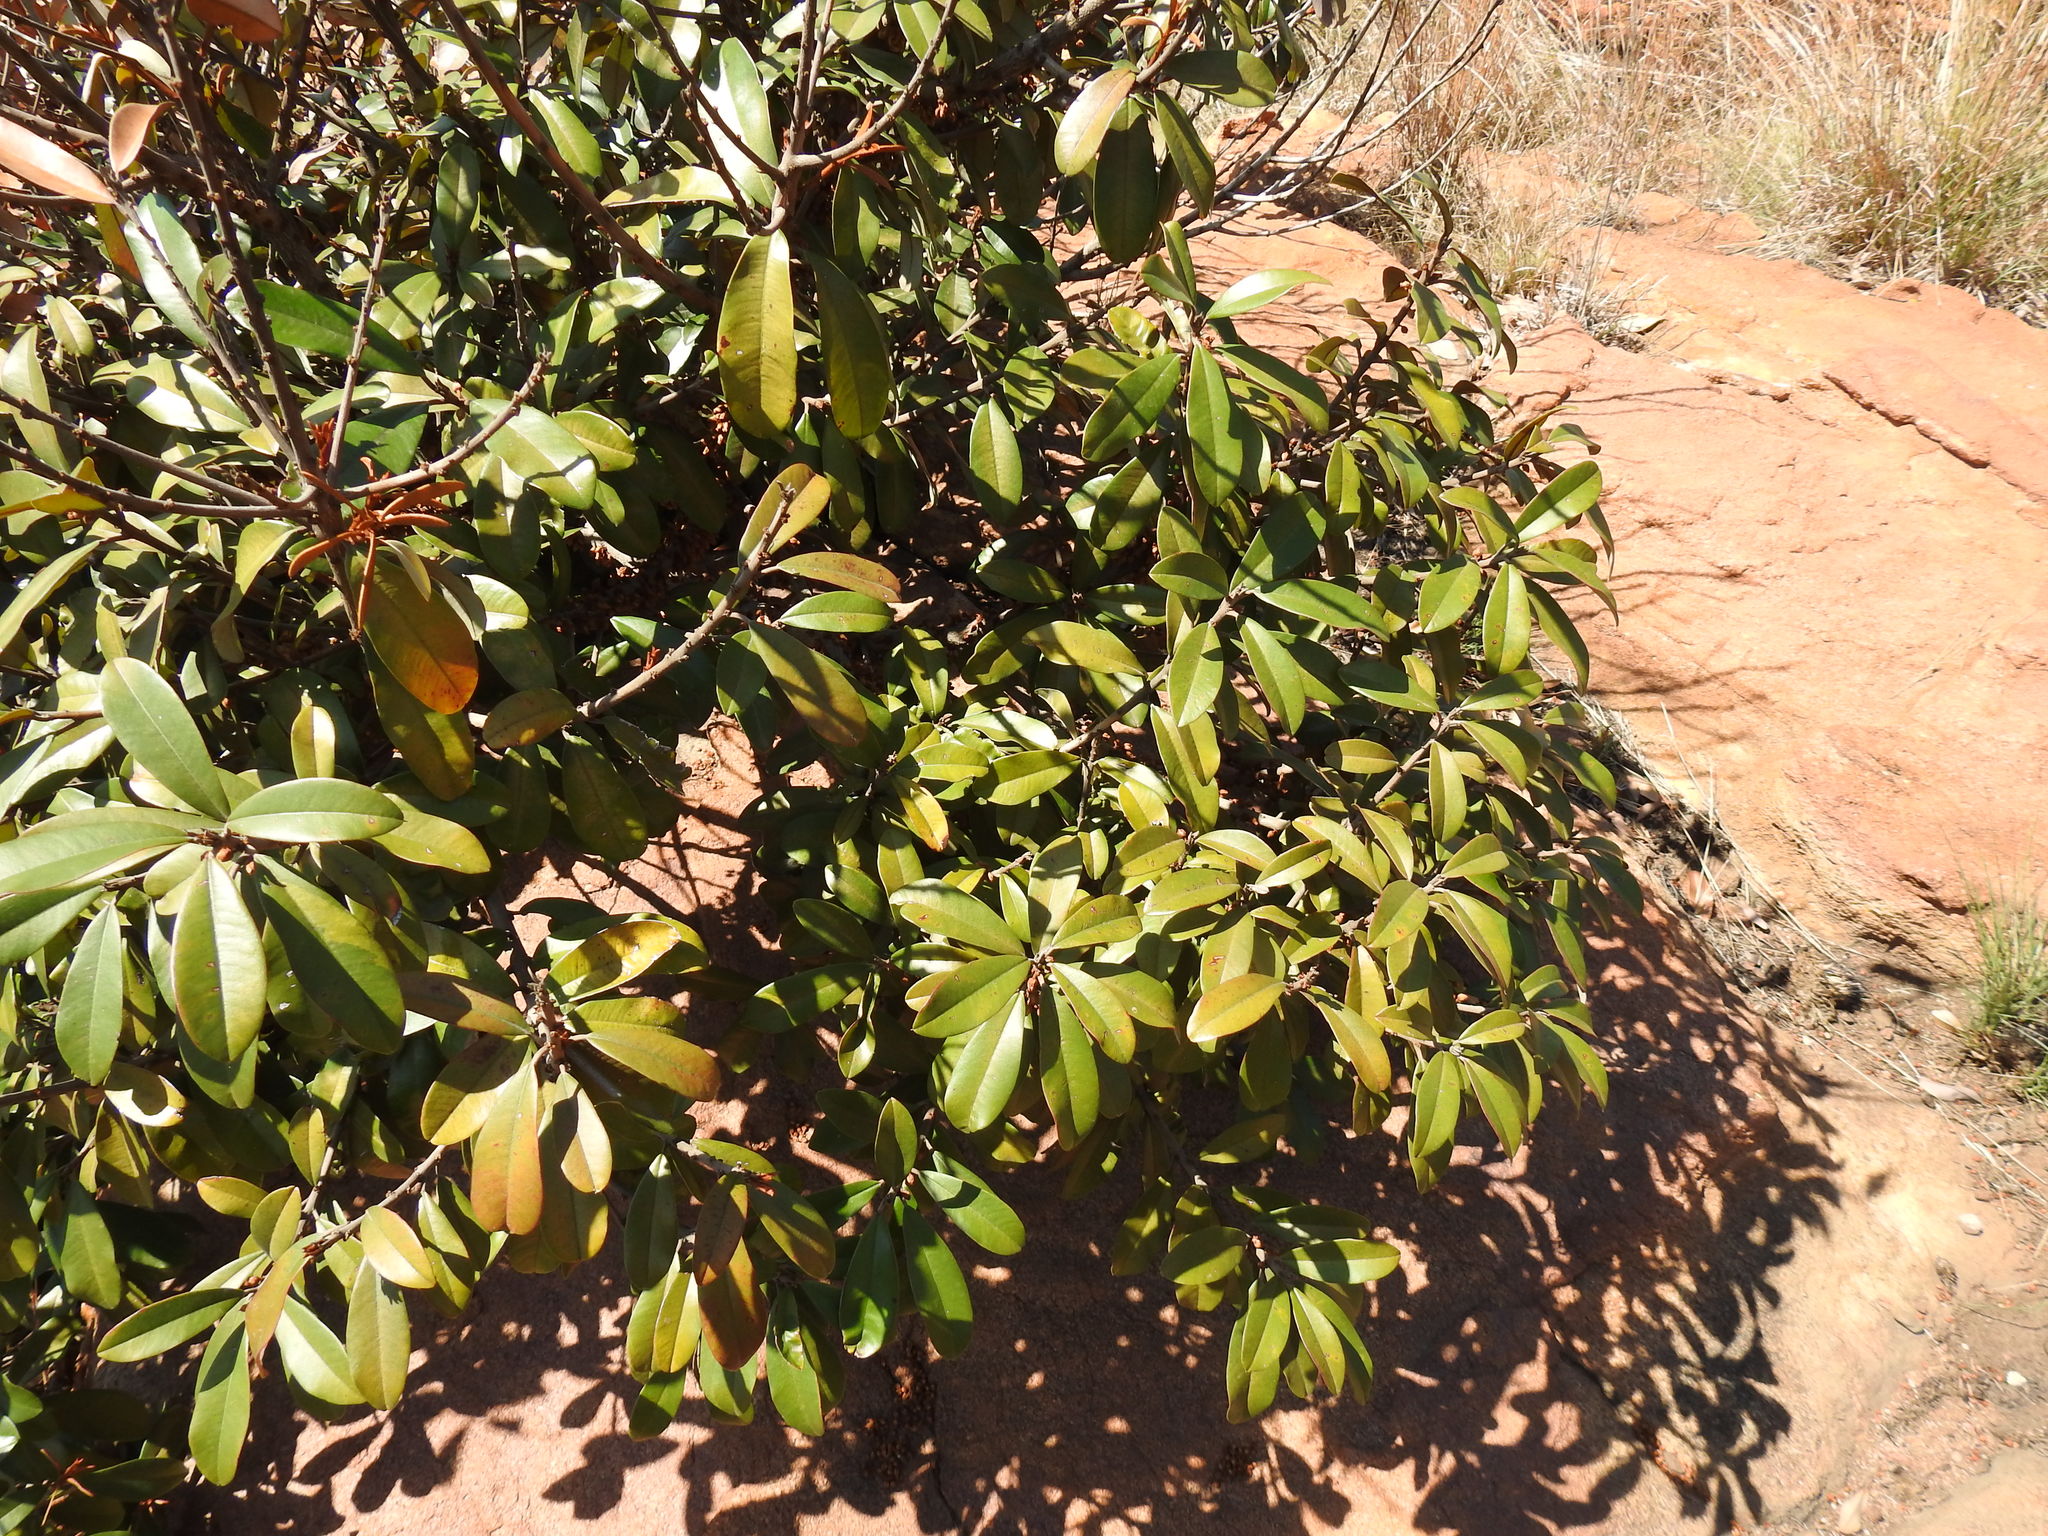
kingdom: Plantae
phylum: Tracheophyta
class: Magnoliopsida
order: Ericales
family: Sapotaceae
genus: Englerophytum
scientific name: Englerophytum magalismontanum
